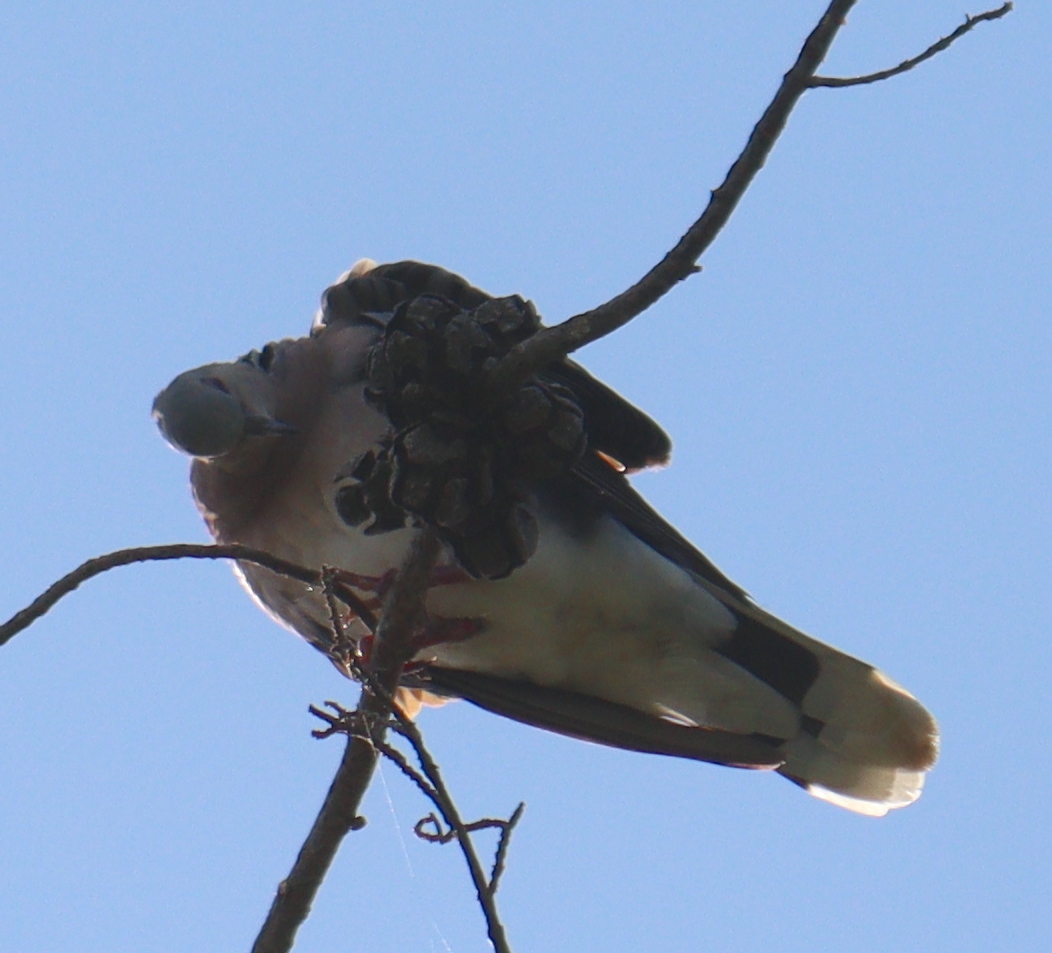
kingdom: Animalia
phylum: Chordata
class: Aves
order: Columbiformes
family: Columbidae
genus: Streptopelia
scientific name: Streptopelia turtur
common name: European turtle dove
